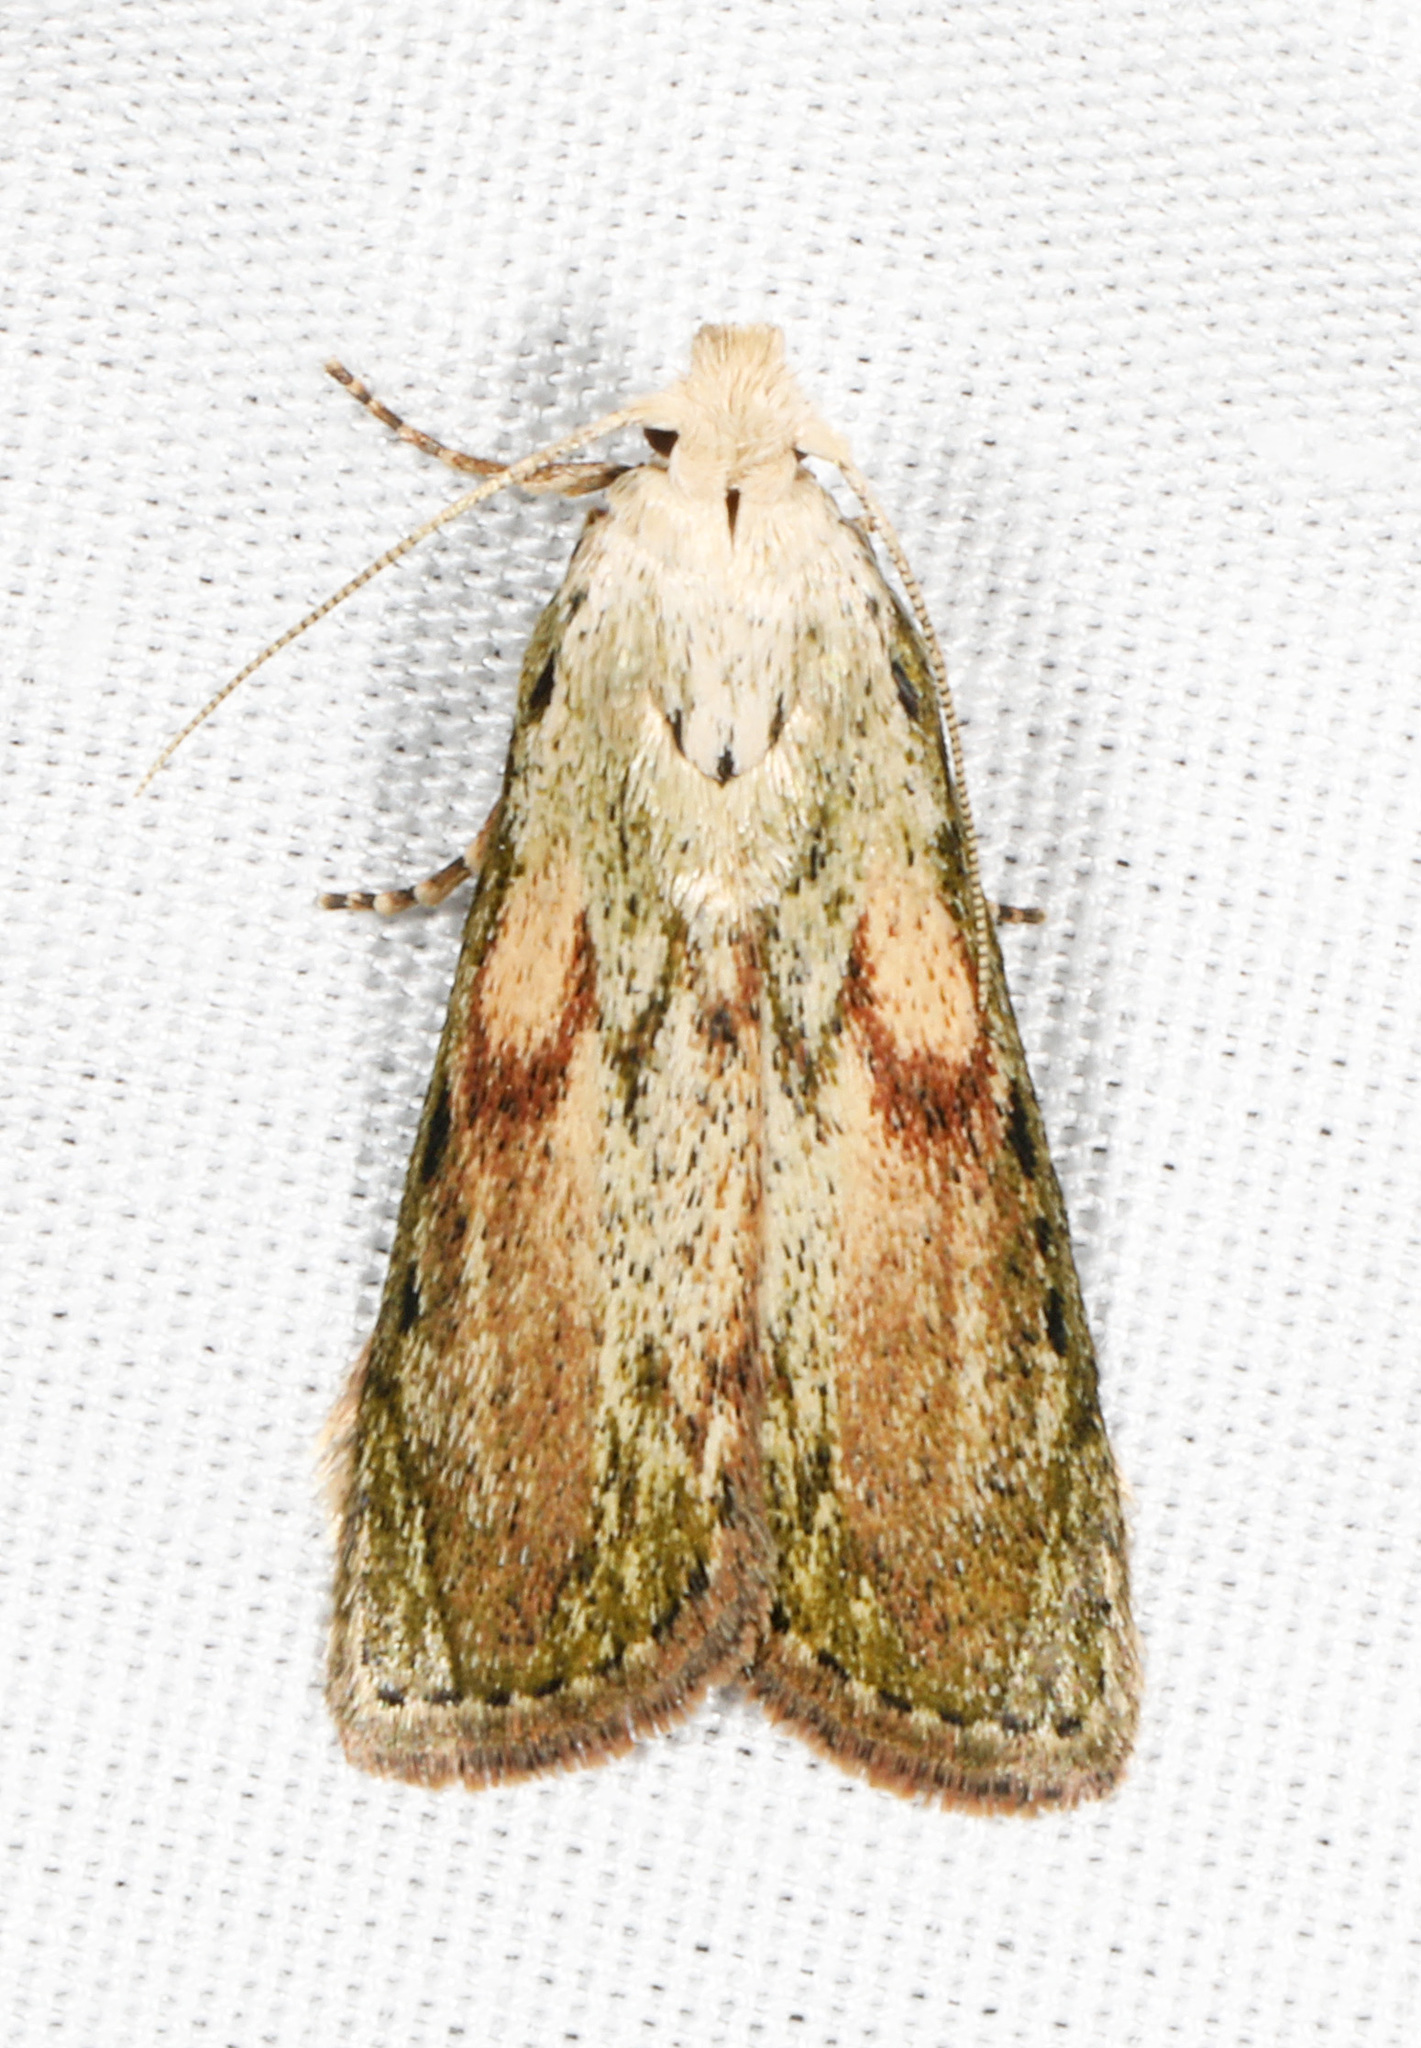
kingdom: Animalia
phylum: Arthropoda
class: Insecta
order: Lepidoptera
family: Pyralidae
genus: Aphomia
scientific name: Aphomia sociella
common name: Bee moth
